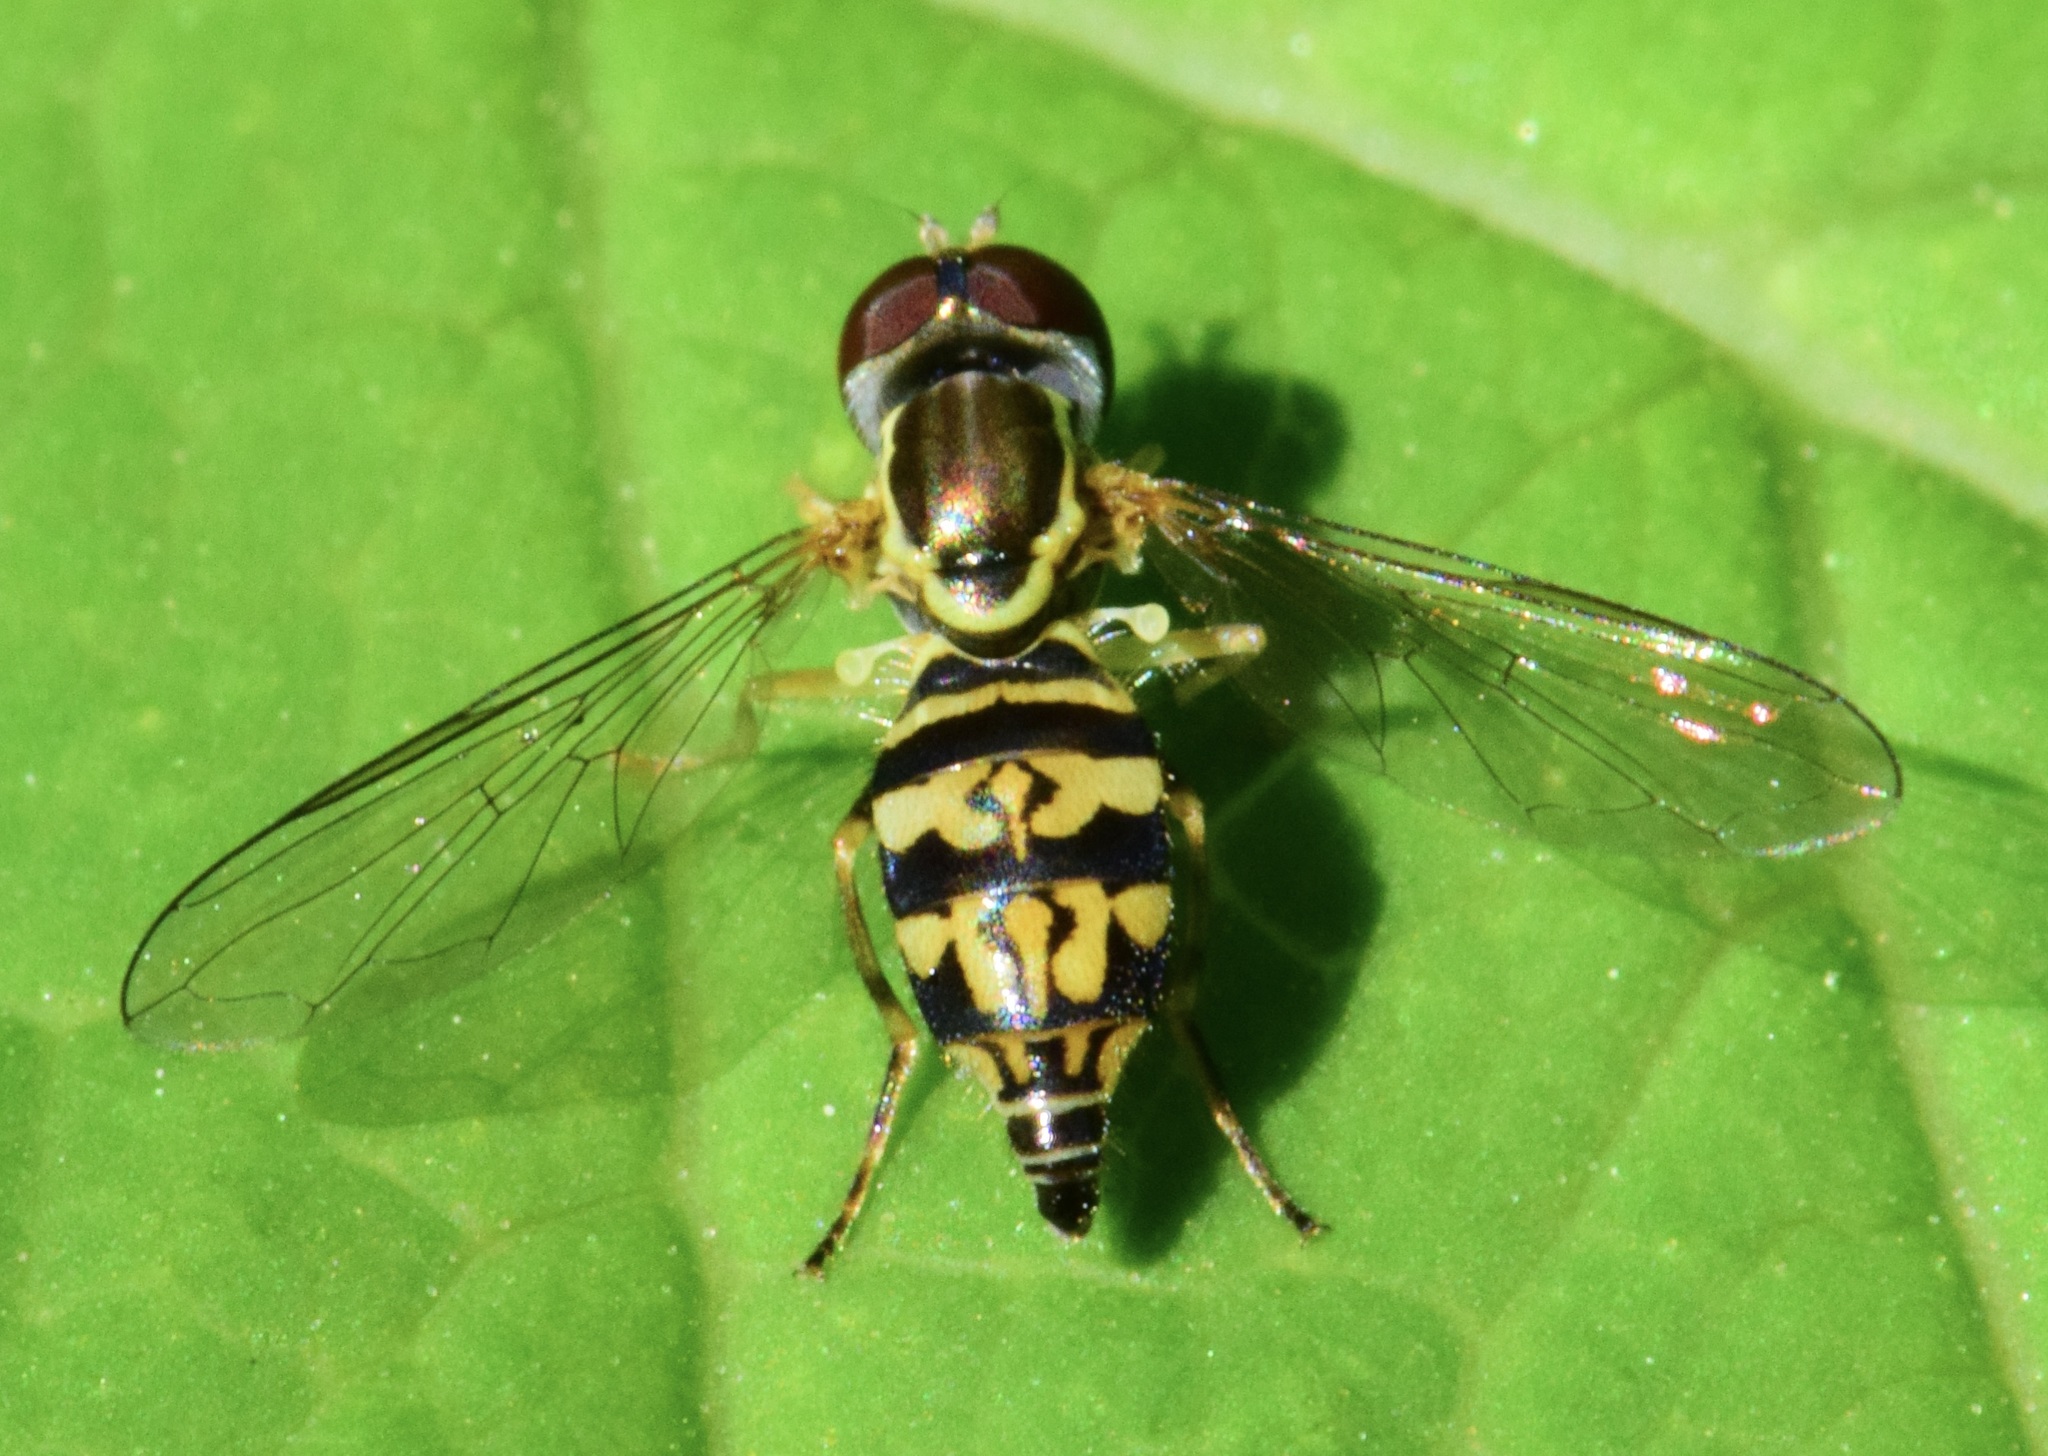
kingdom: Animalia
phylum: Arthropoda
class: Insecta
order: Diptera
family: Syrphidae
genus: Toxomerus
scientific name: Toxomerus geminatus
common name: Eastern calligrapher
